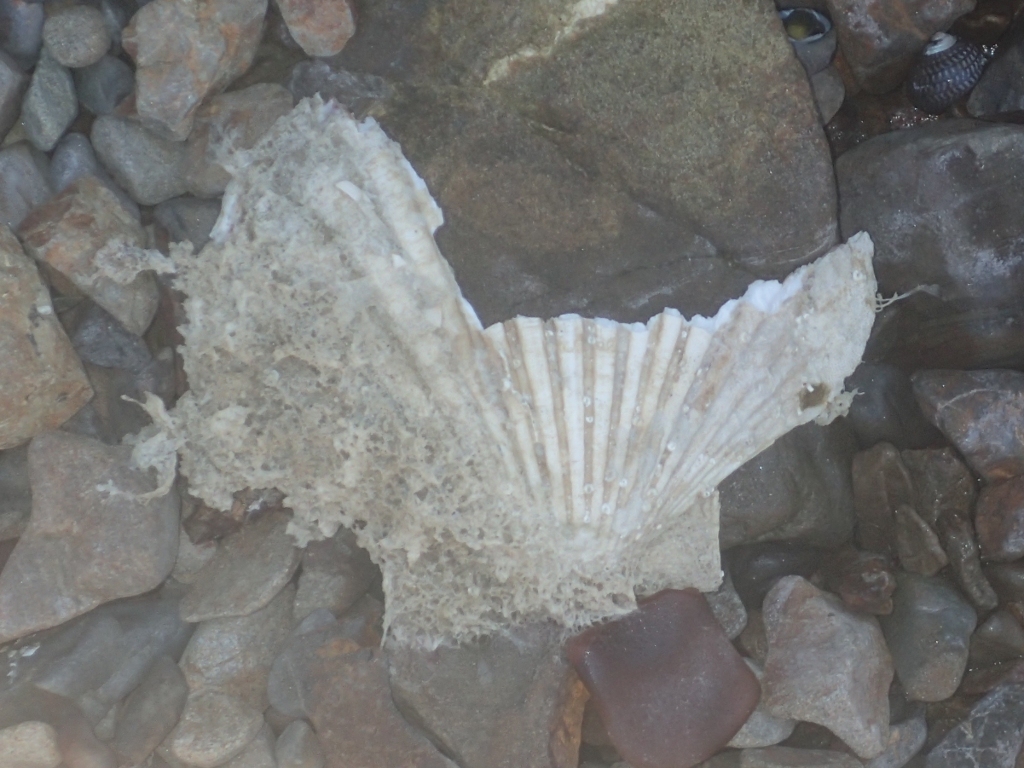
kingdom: Animalia
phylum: Mollusca
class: Bivalvia
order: Pectinida
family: Pectinidae
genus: Pecten
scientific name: Pecten novaezelandiae
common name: New zealand scallop
